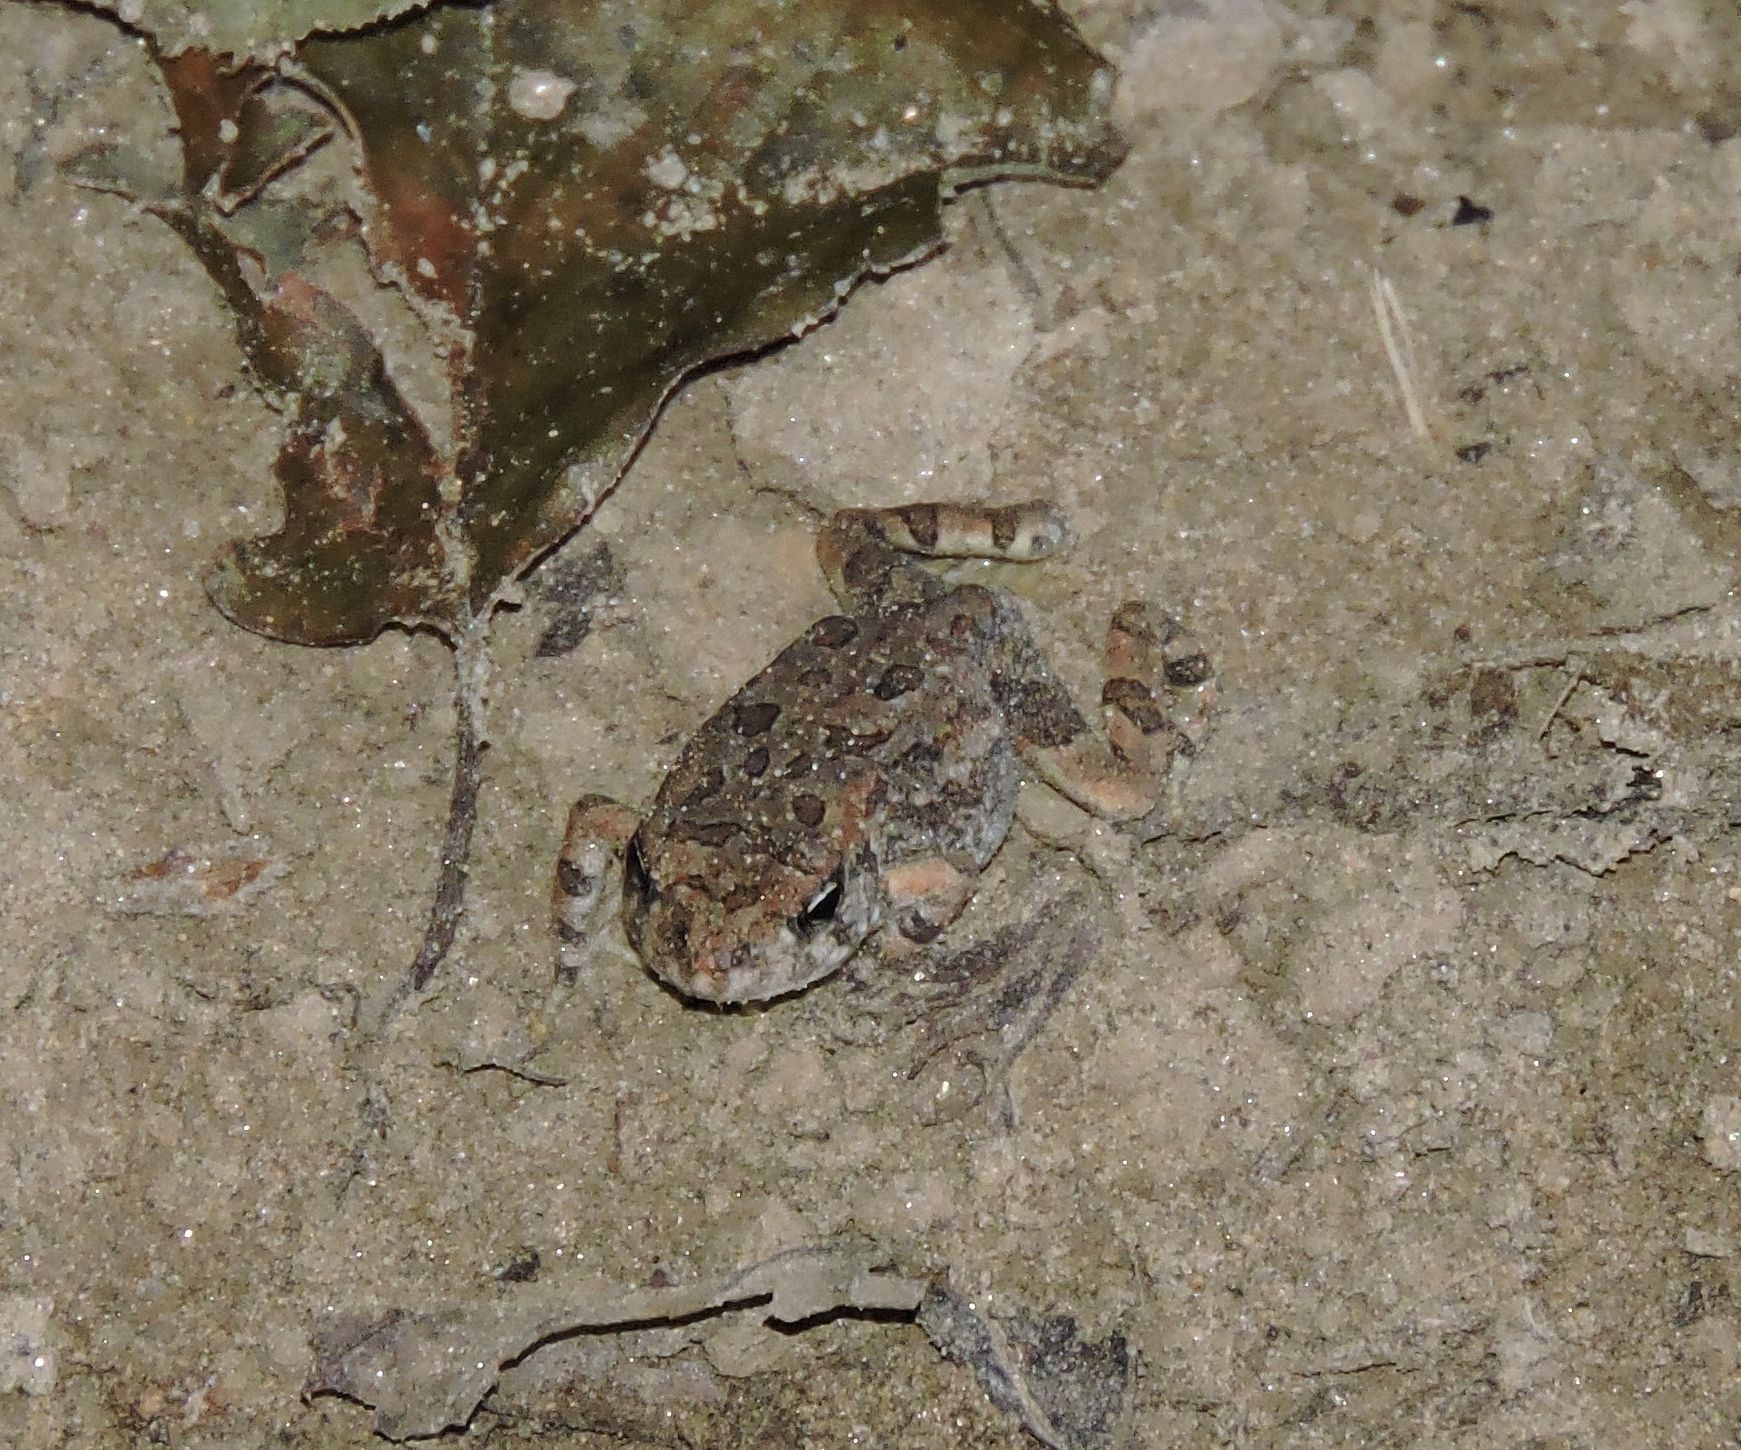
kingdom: Animalia
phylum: Chordata
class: Amphibia
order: Anura
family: Bufonidae
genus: Anaxyrus
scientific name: Anaxyrus fowleri
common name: Fowler's toad
